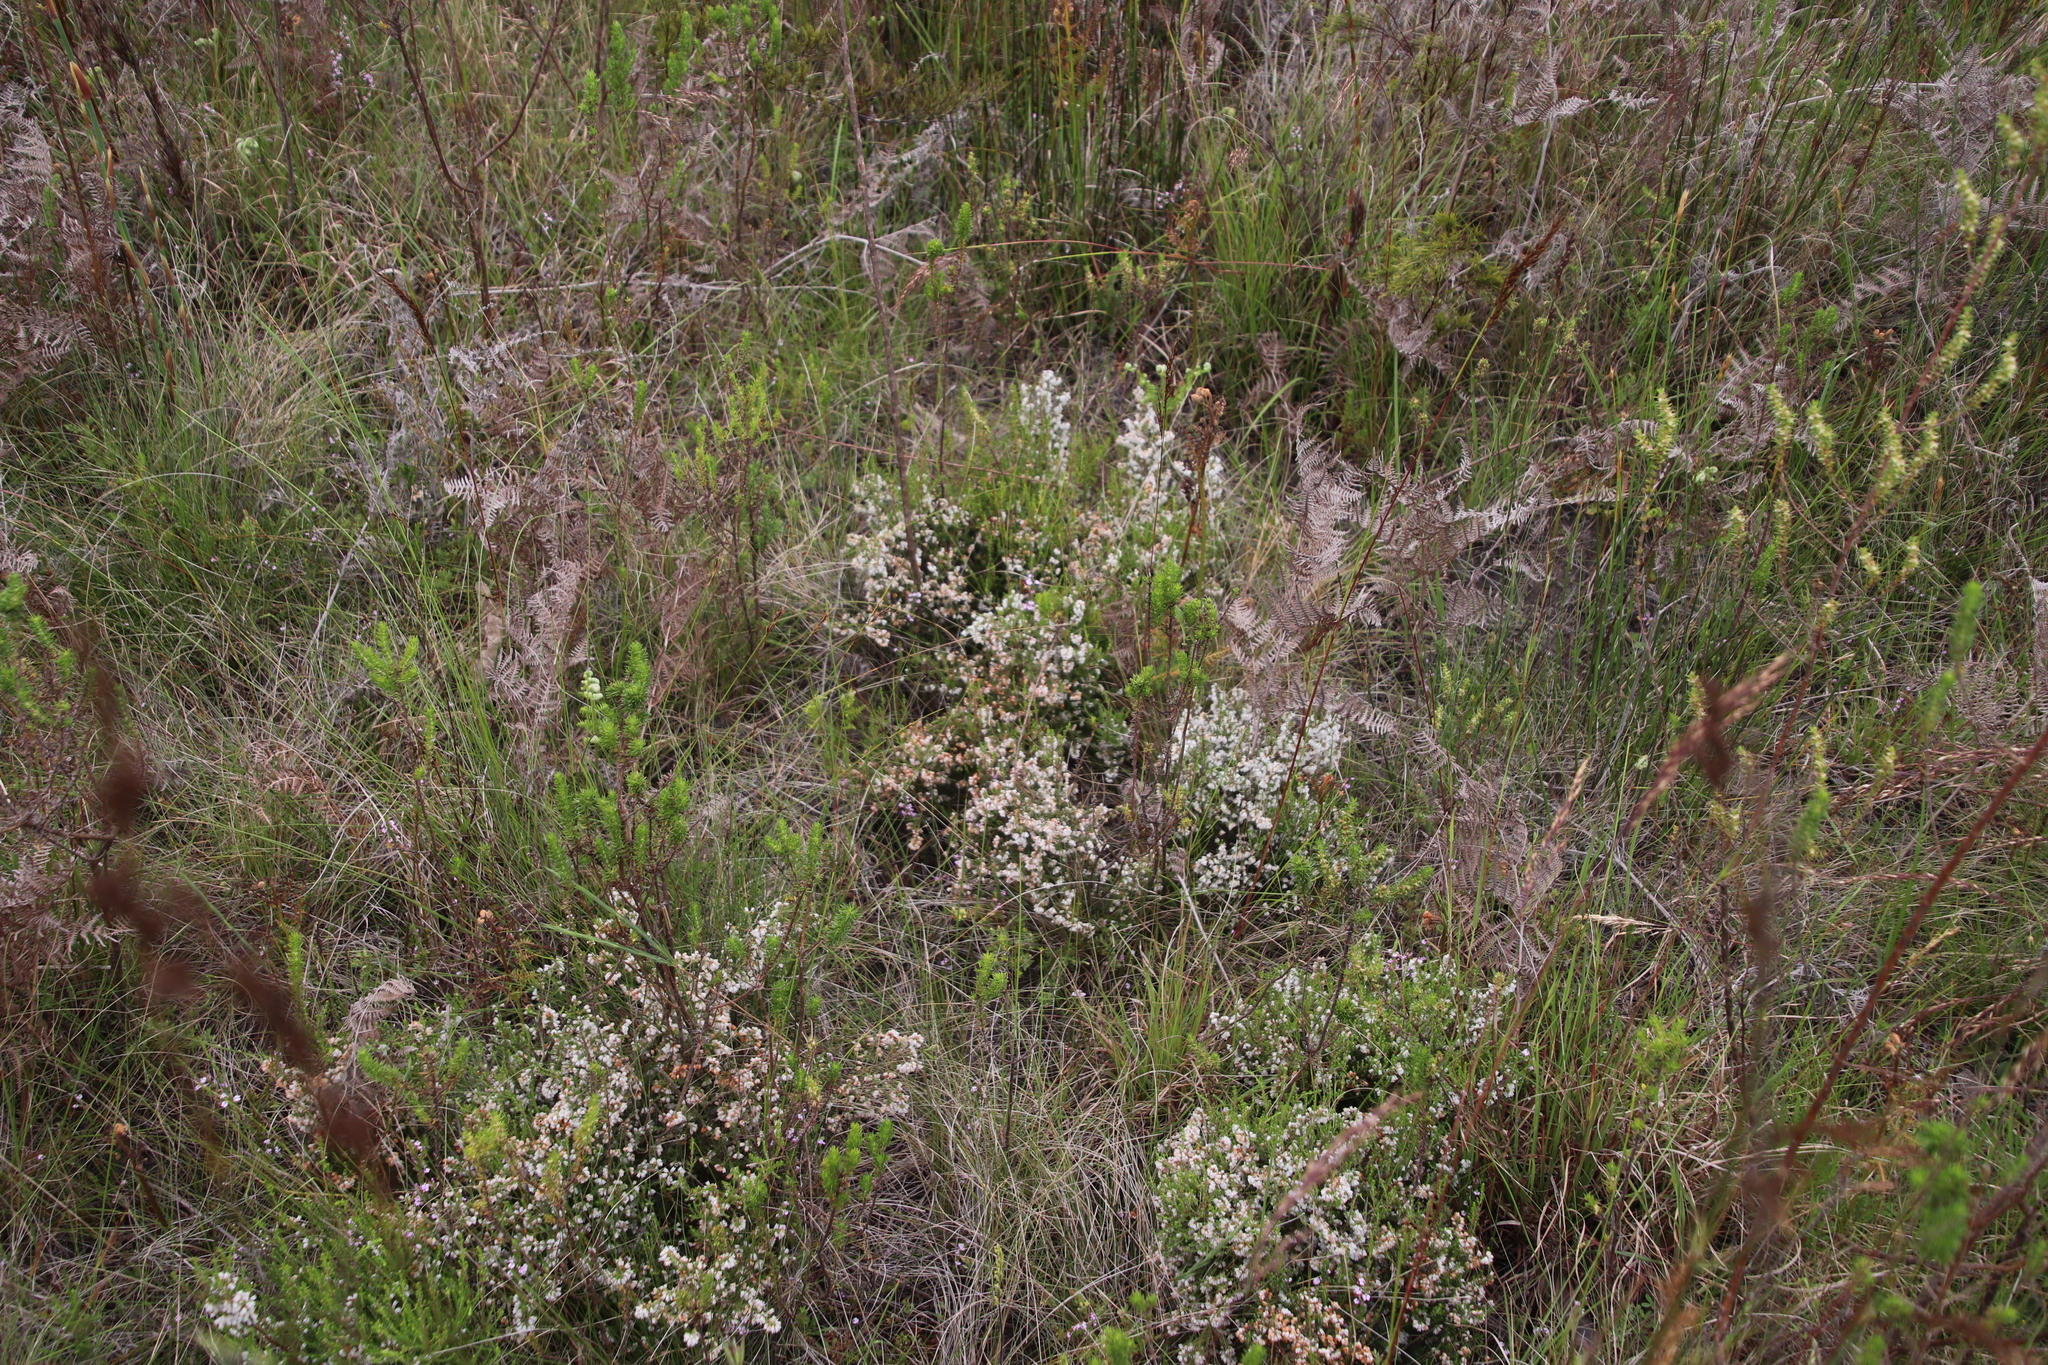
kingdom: Plantae
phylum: Tracheophyta
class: Magnoliopsida
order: Ericales
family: Ericaceae
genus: Erica
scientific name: Erica quadrangularis
